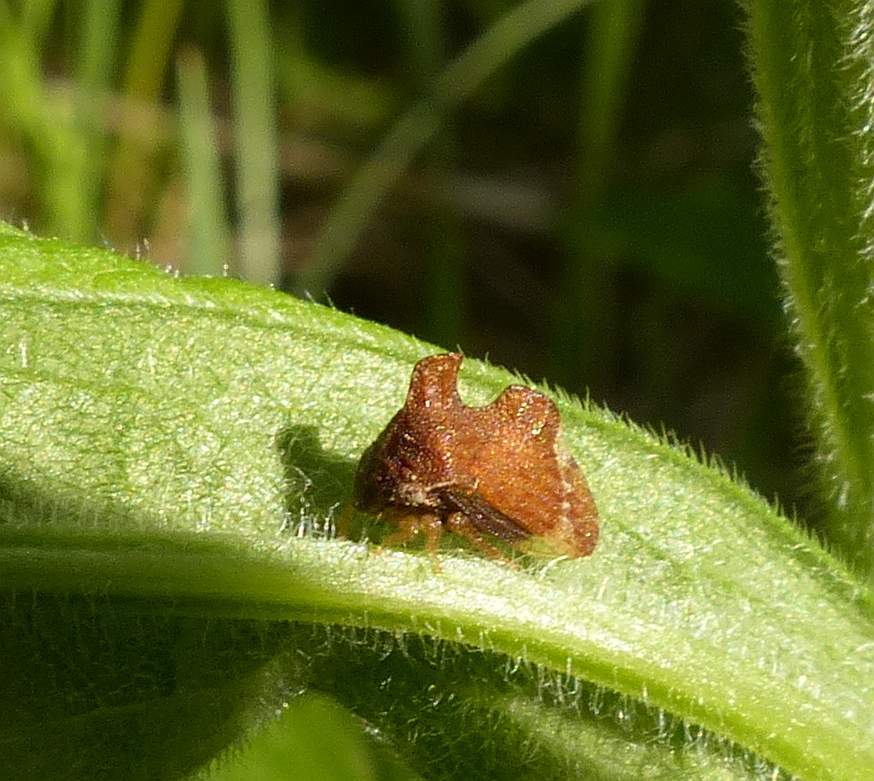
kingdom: Animalia
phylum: Arthropoda
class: Insecta
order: Hemiptera
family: Membracidae
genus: Entylia
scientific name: Entylia carinata
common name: Keeled treehopper
